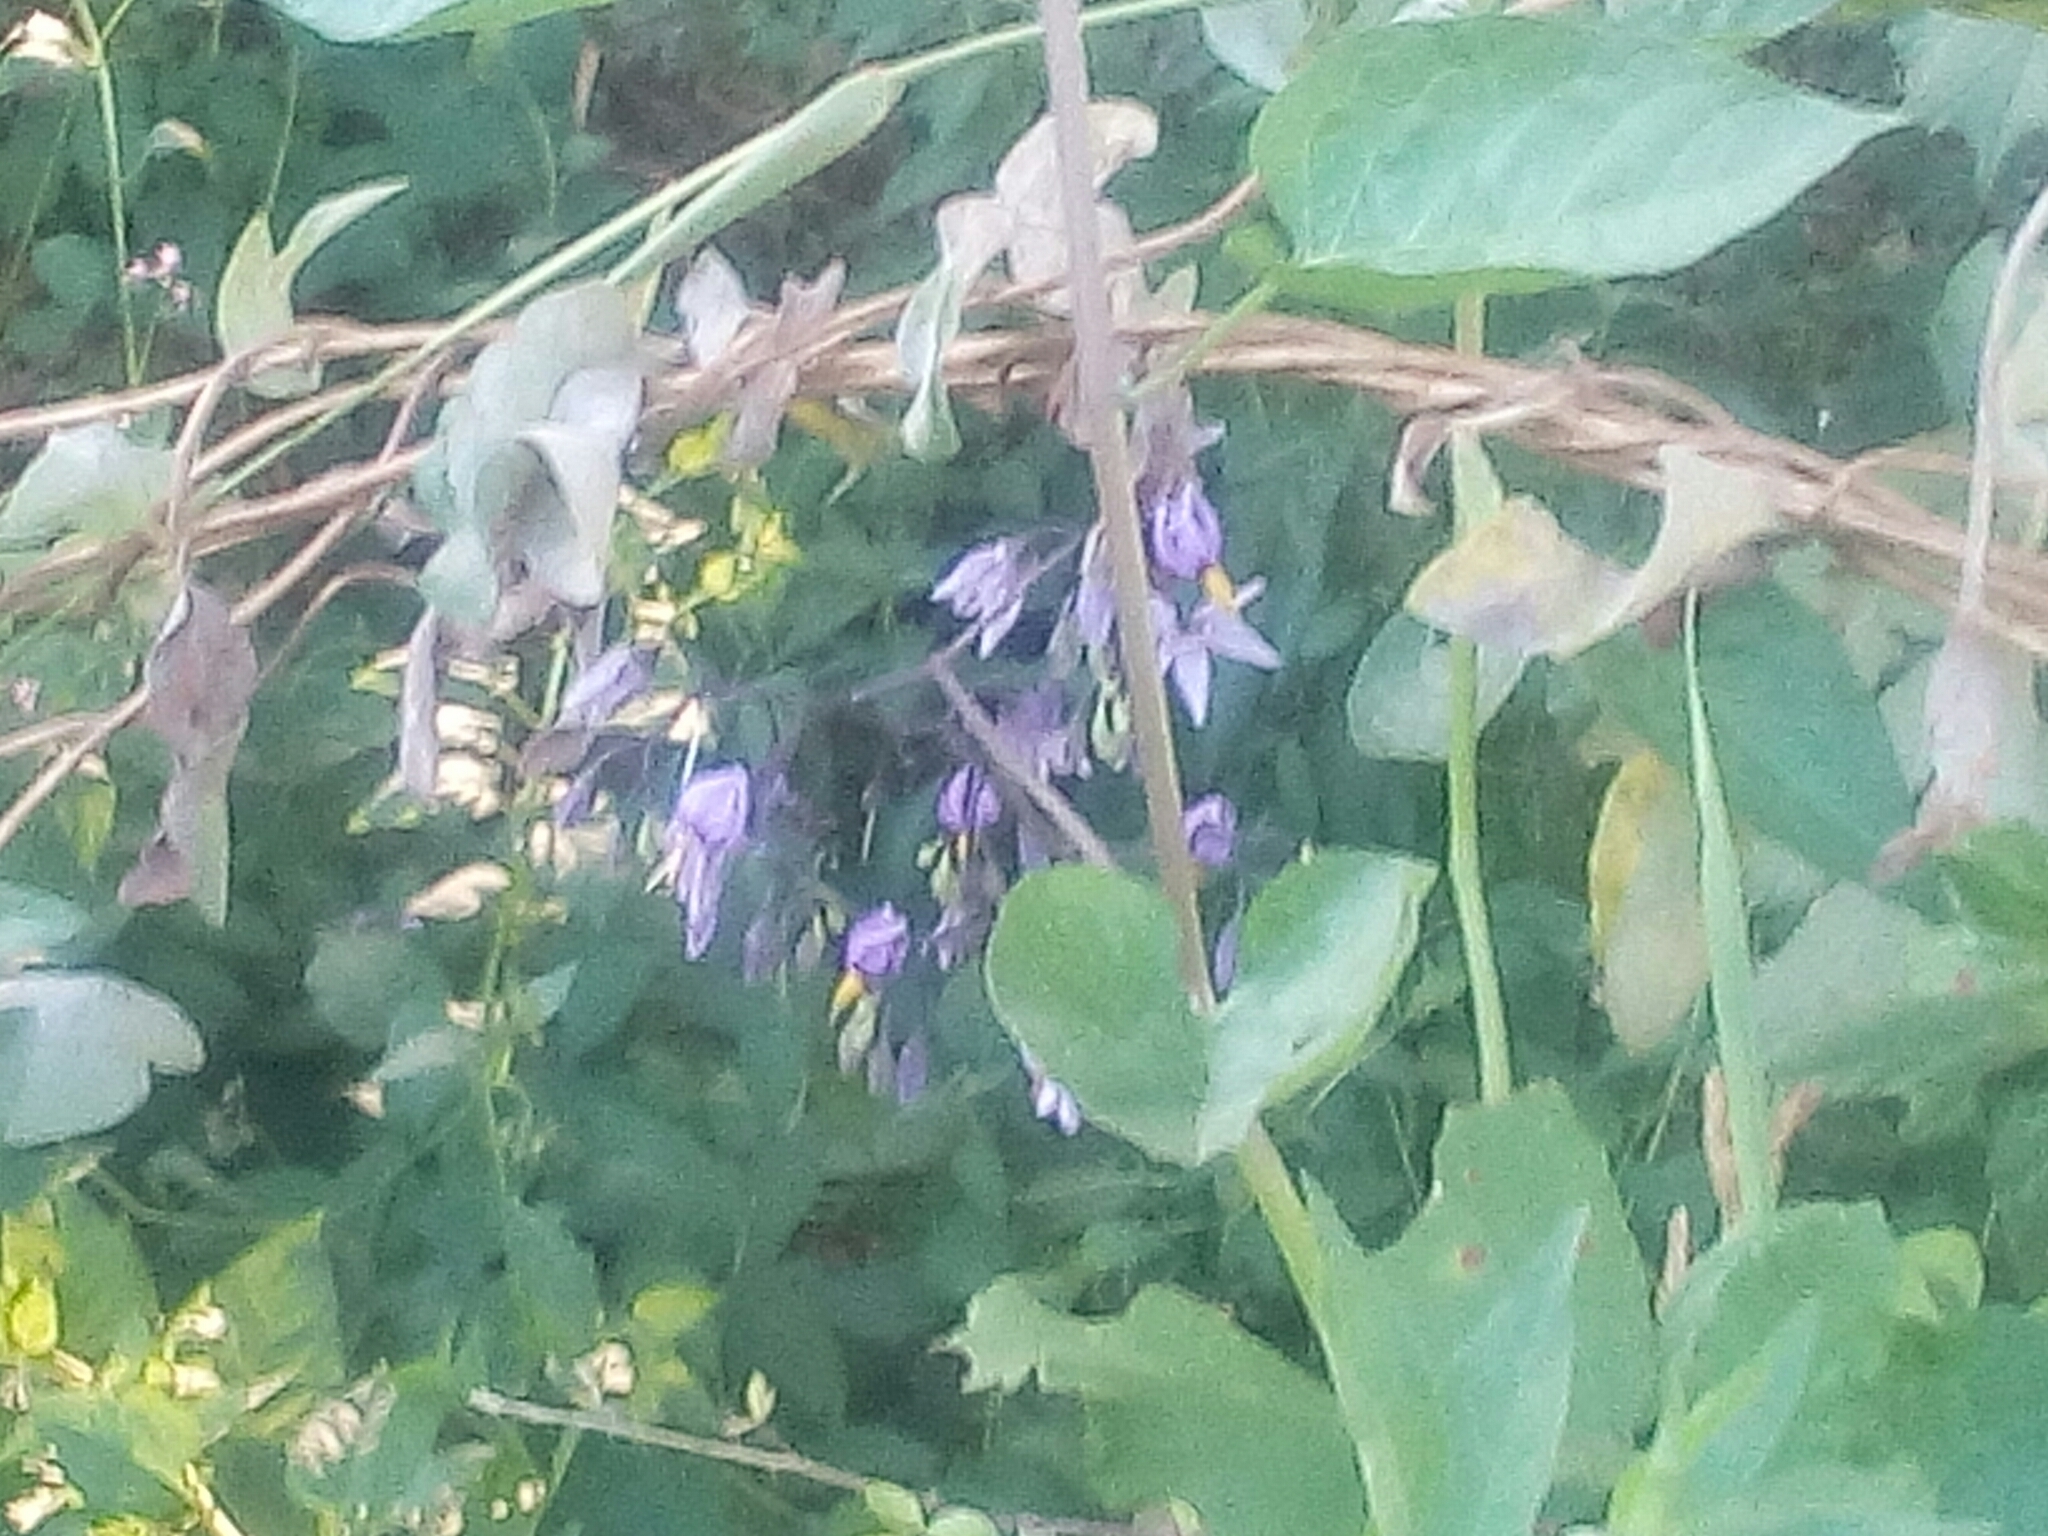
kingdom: Plantae
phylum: Tracheophyta
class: Magnoliopsida
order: Solanales
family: Solanaceae
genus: Solanum
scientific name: Solanum dulcamara
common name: Climbing nightshade
